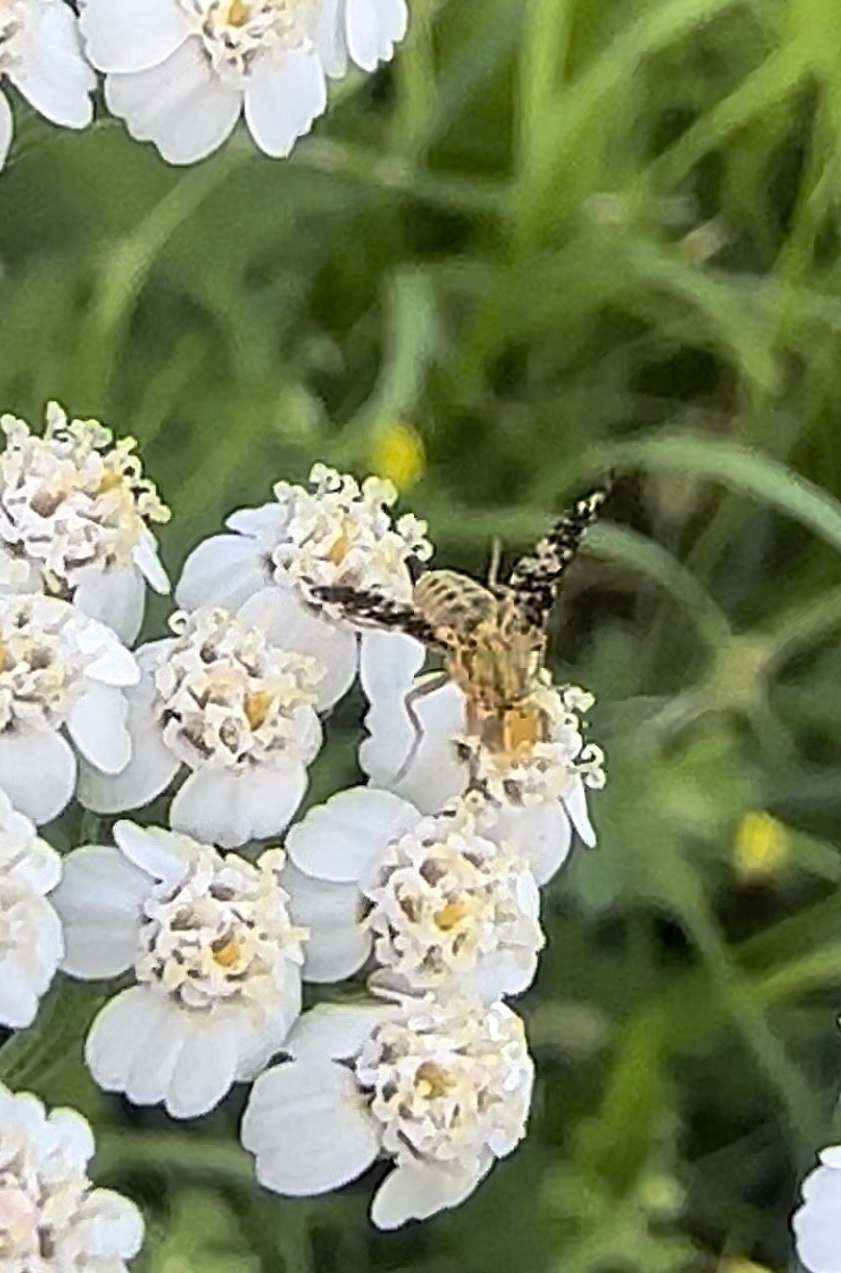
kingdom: Animalia
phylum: Arthropoda
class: Insecta
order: Diptera
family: Tephritidae
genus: Oxyna
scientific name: Oxyna flavipennis
